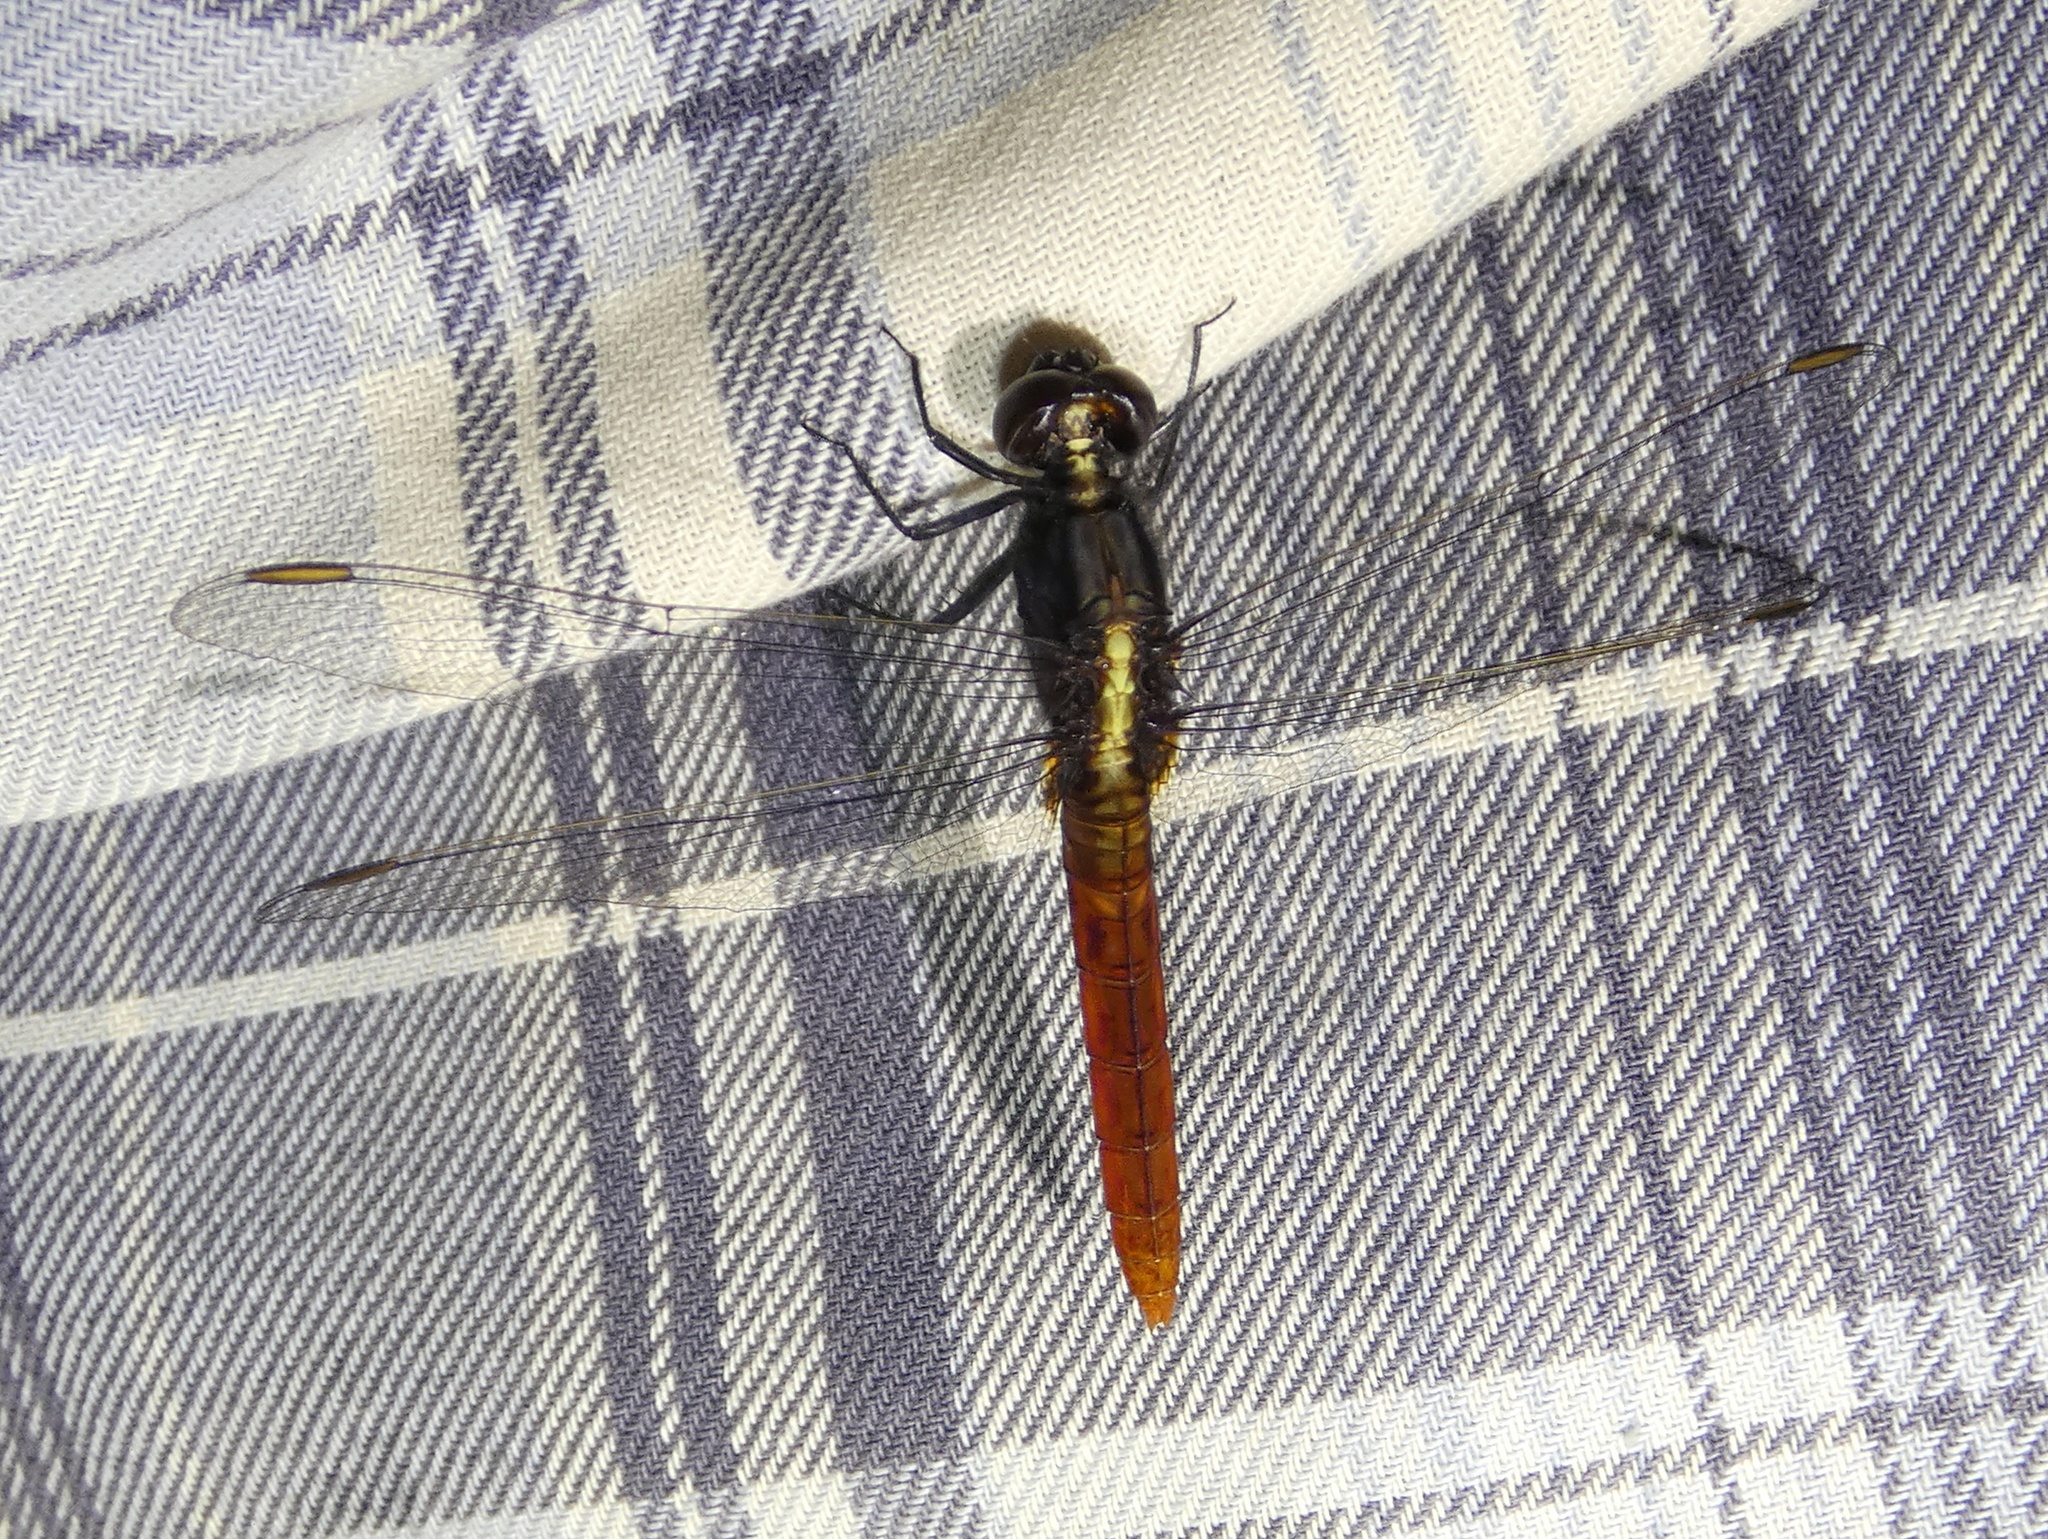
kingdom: Animalia
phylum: Arthropoda
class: Insecta
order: Odonata
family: Libellulidae
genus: Erythemis
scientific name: Erythemis peruviana
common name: Flame-tailed pondhawk
